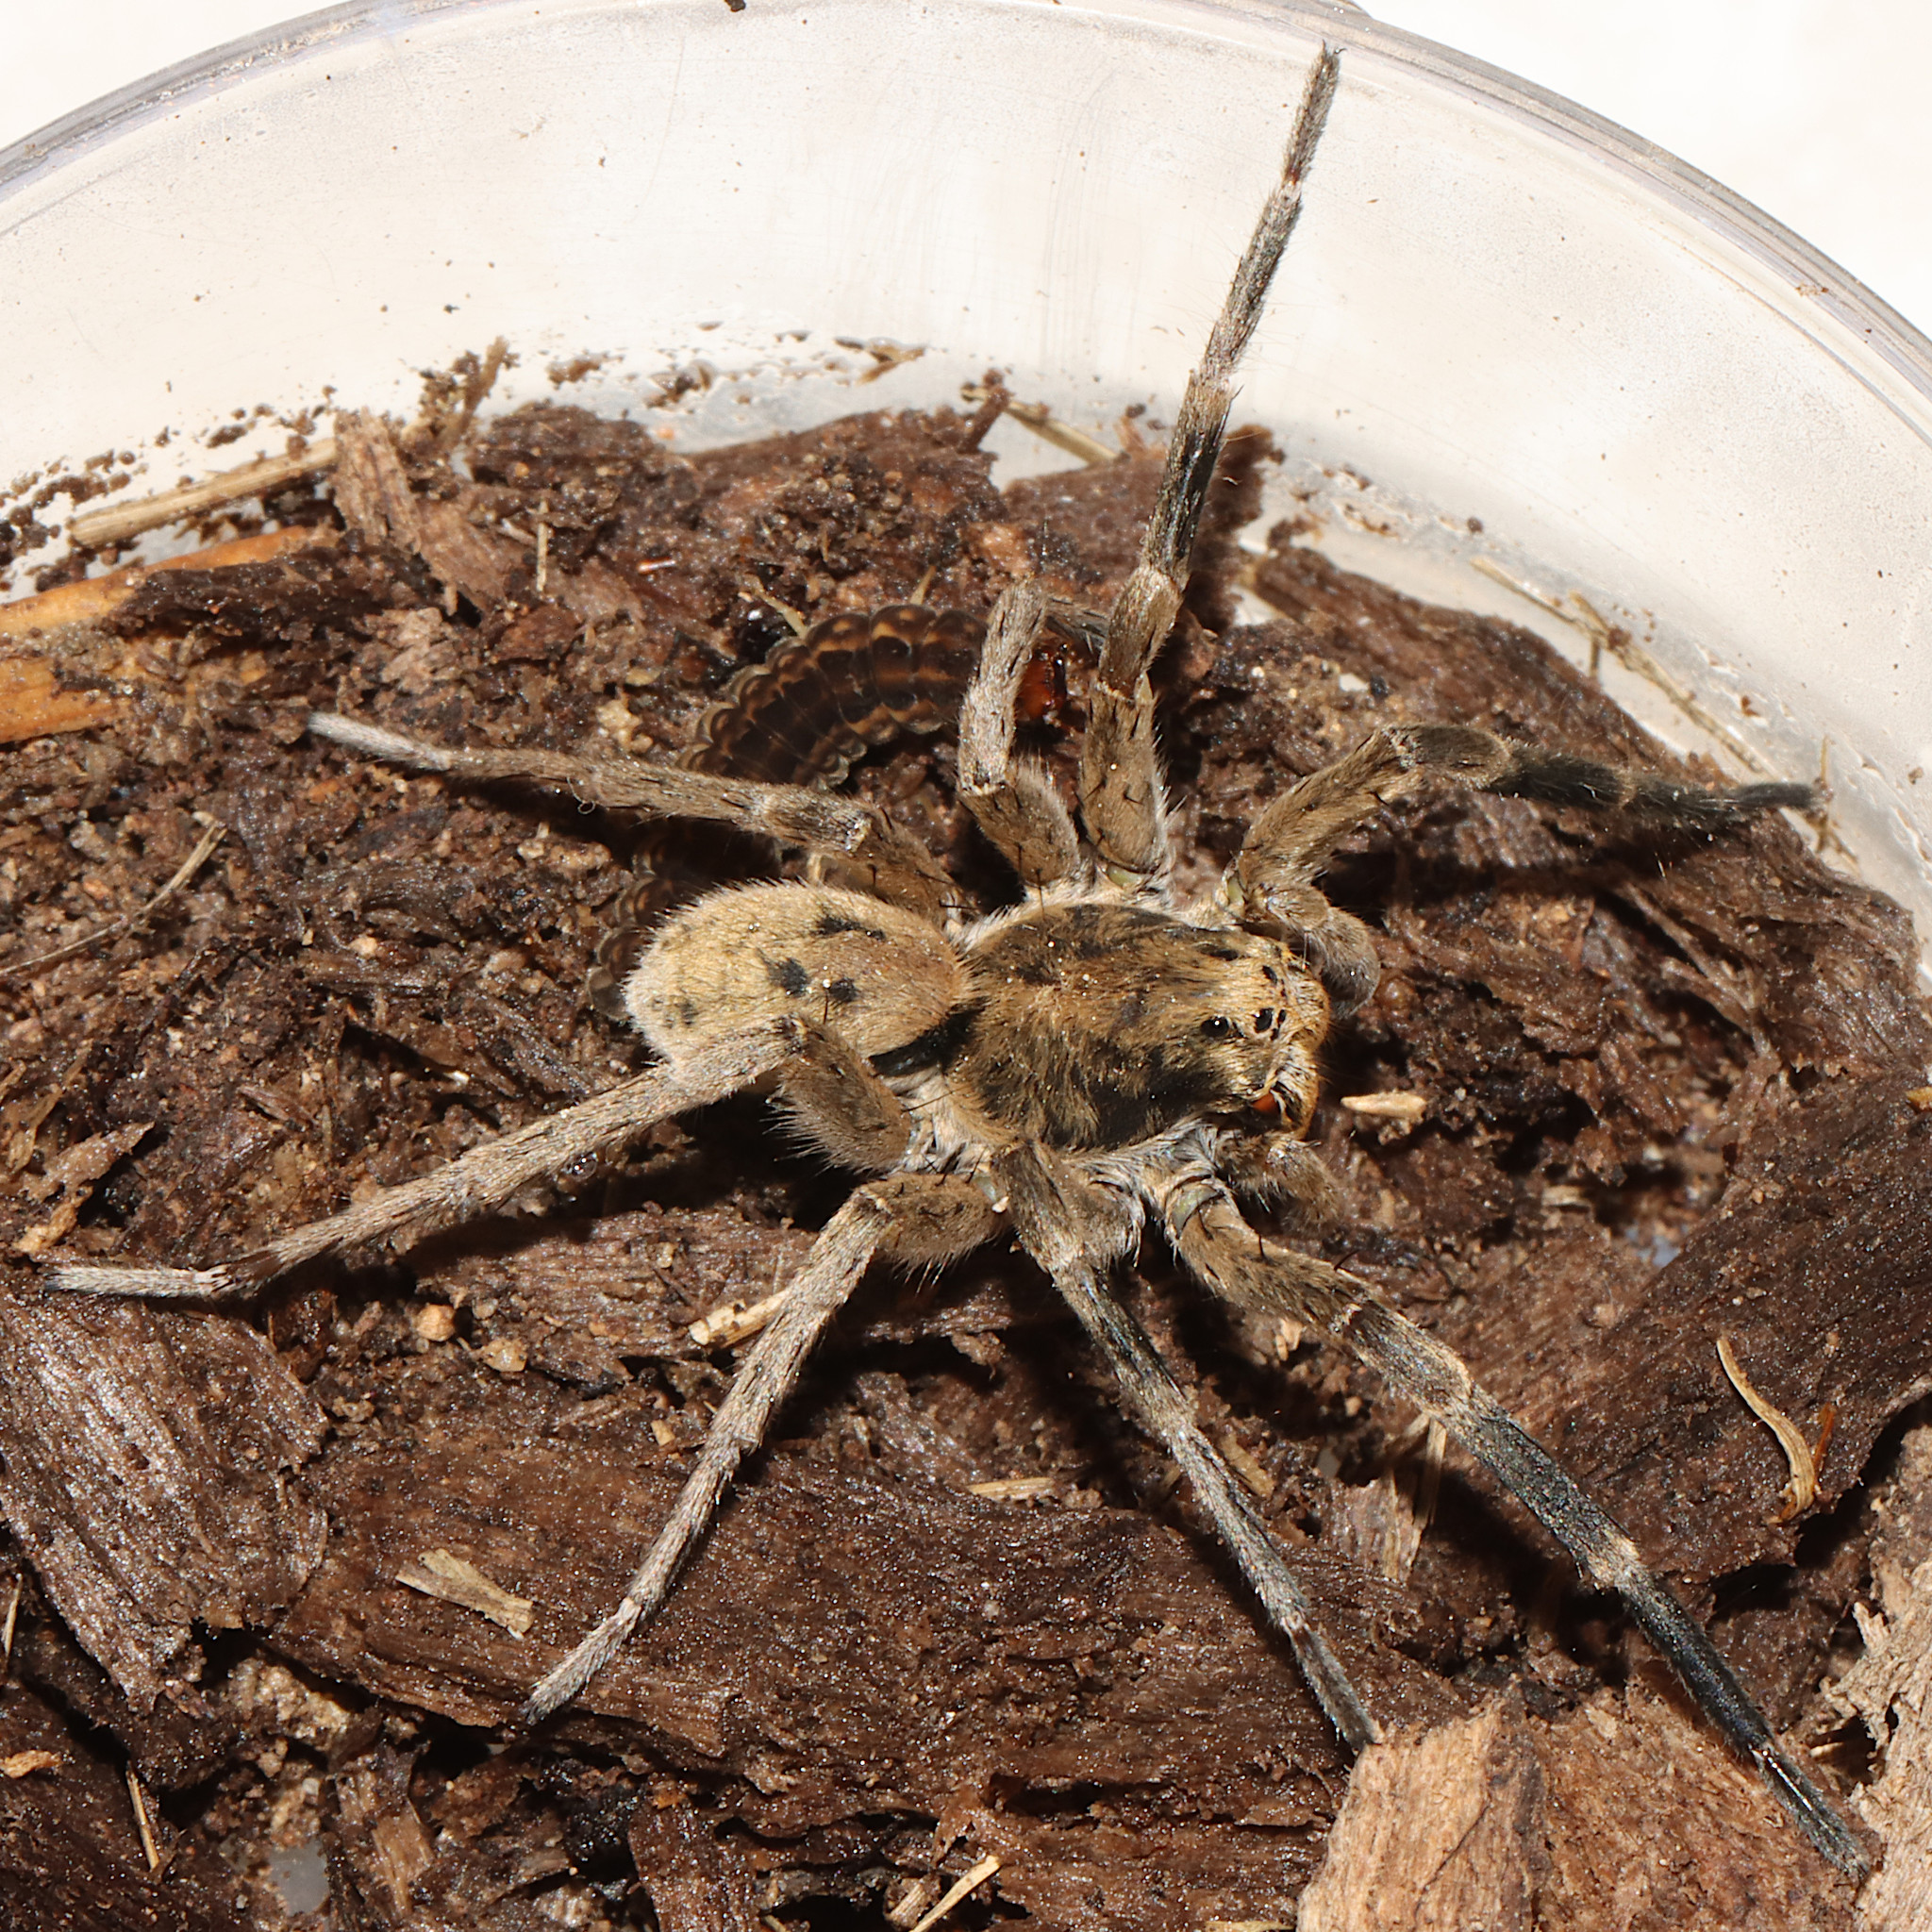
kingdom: Animalia
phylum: Arthropoda
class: Arachnida
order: Araneae
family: Lycosidae
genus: Geolycosa
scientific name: Geolycosa missouriensis
